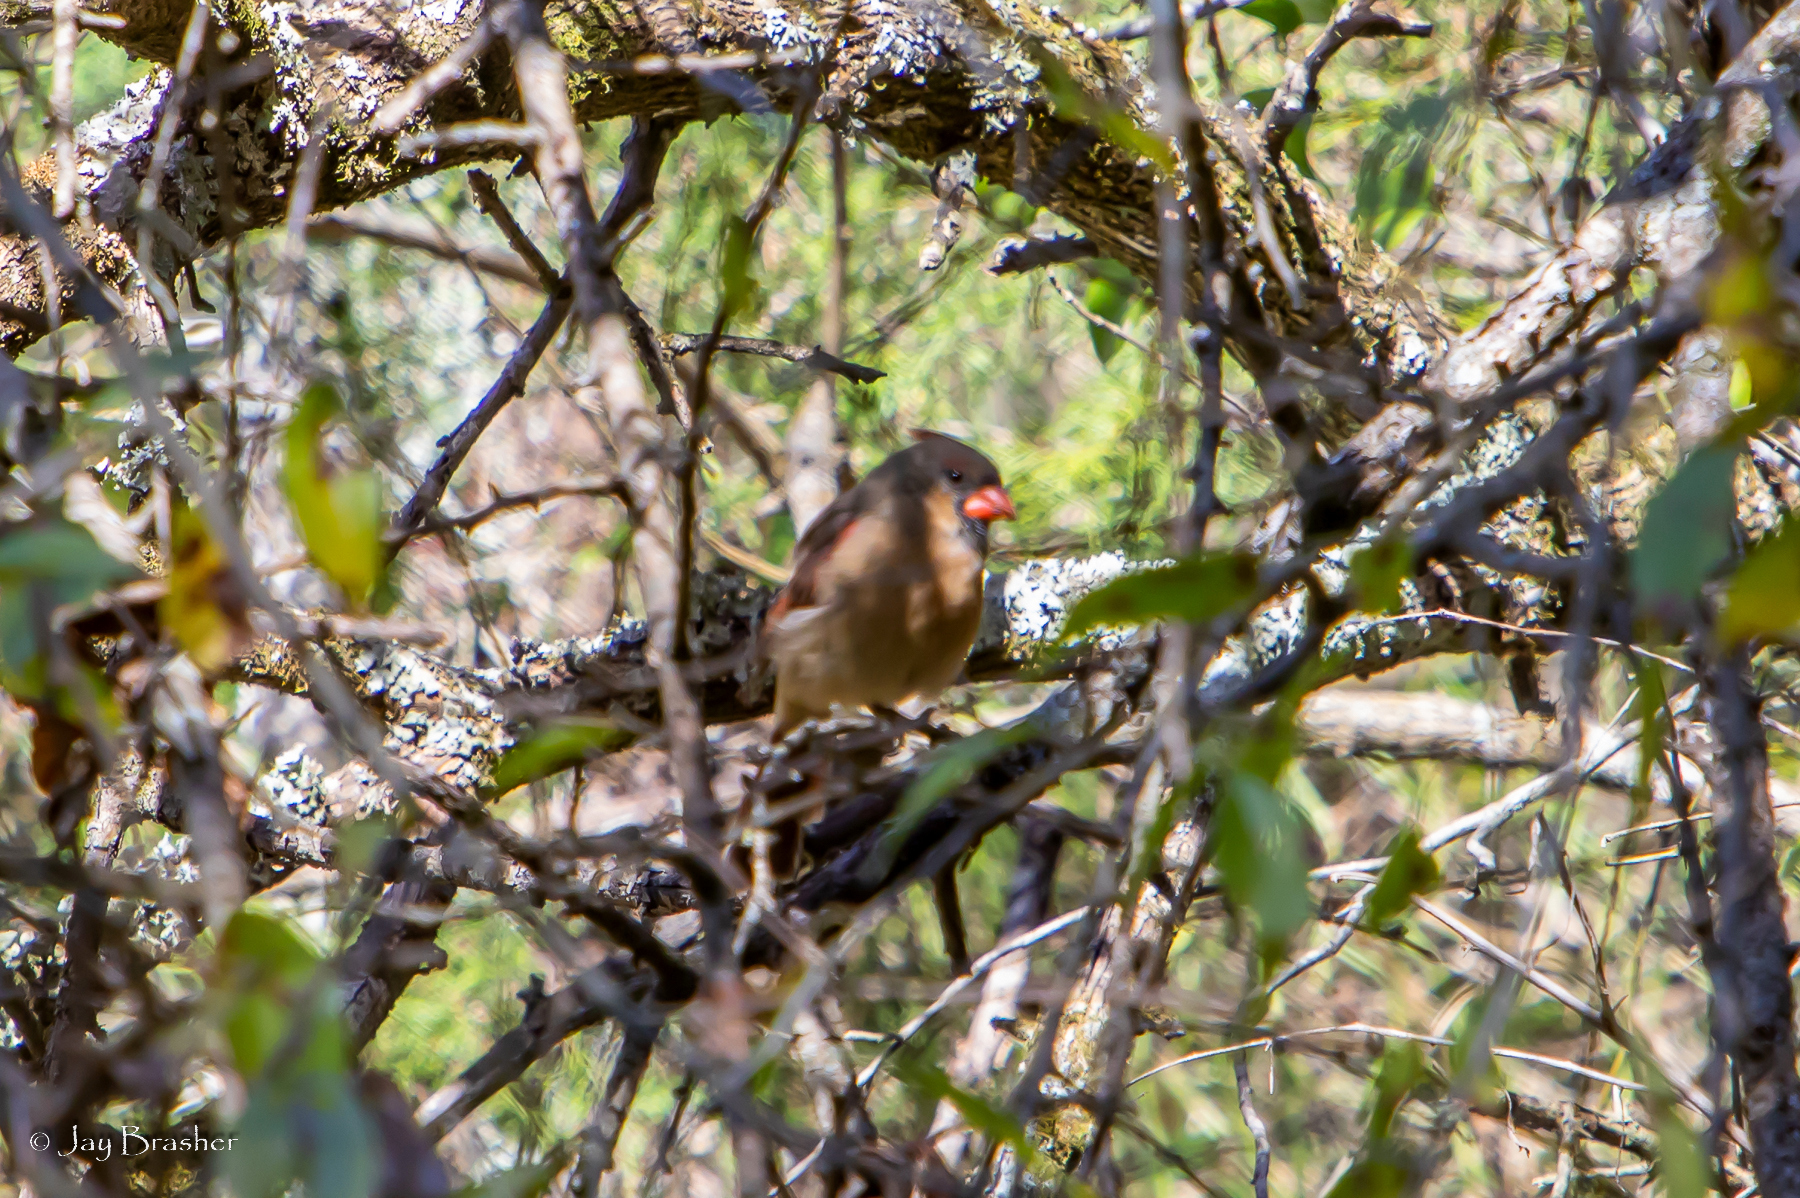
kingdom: Animalia
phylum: Chordata
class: Aves
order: Passeriformes
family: Cardinalidae
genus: Cardinalis
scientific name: Cardinalis cardinalis
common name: Northern cardinal
